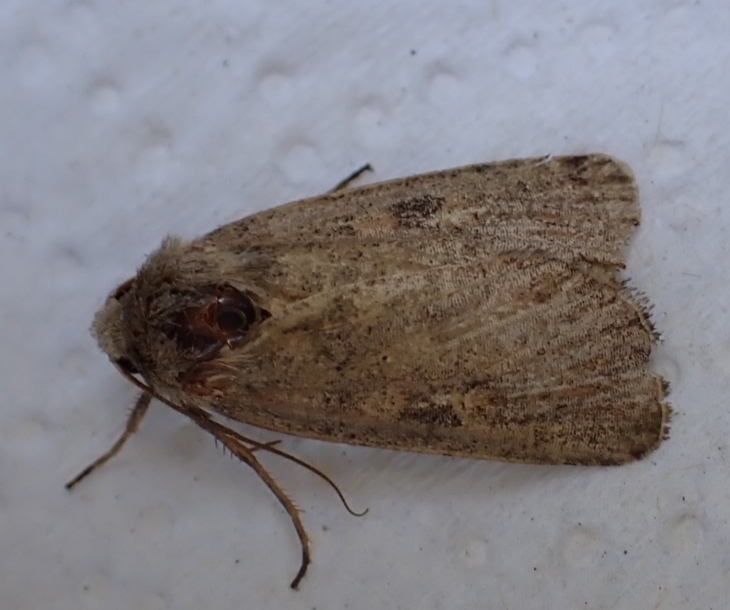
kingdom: Animalia
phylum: Arthropoda
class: Insecta
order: Lepidoptera
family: Noctuidae
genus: Xestia
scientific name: Xestia xanthographa
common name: Square-spot rustic
